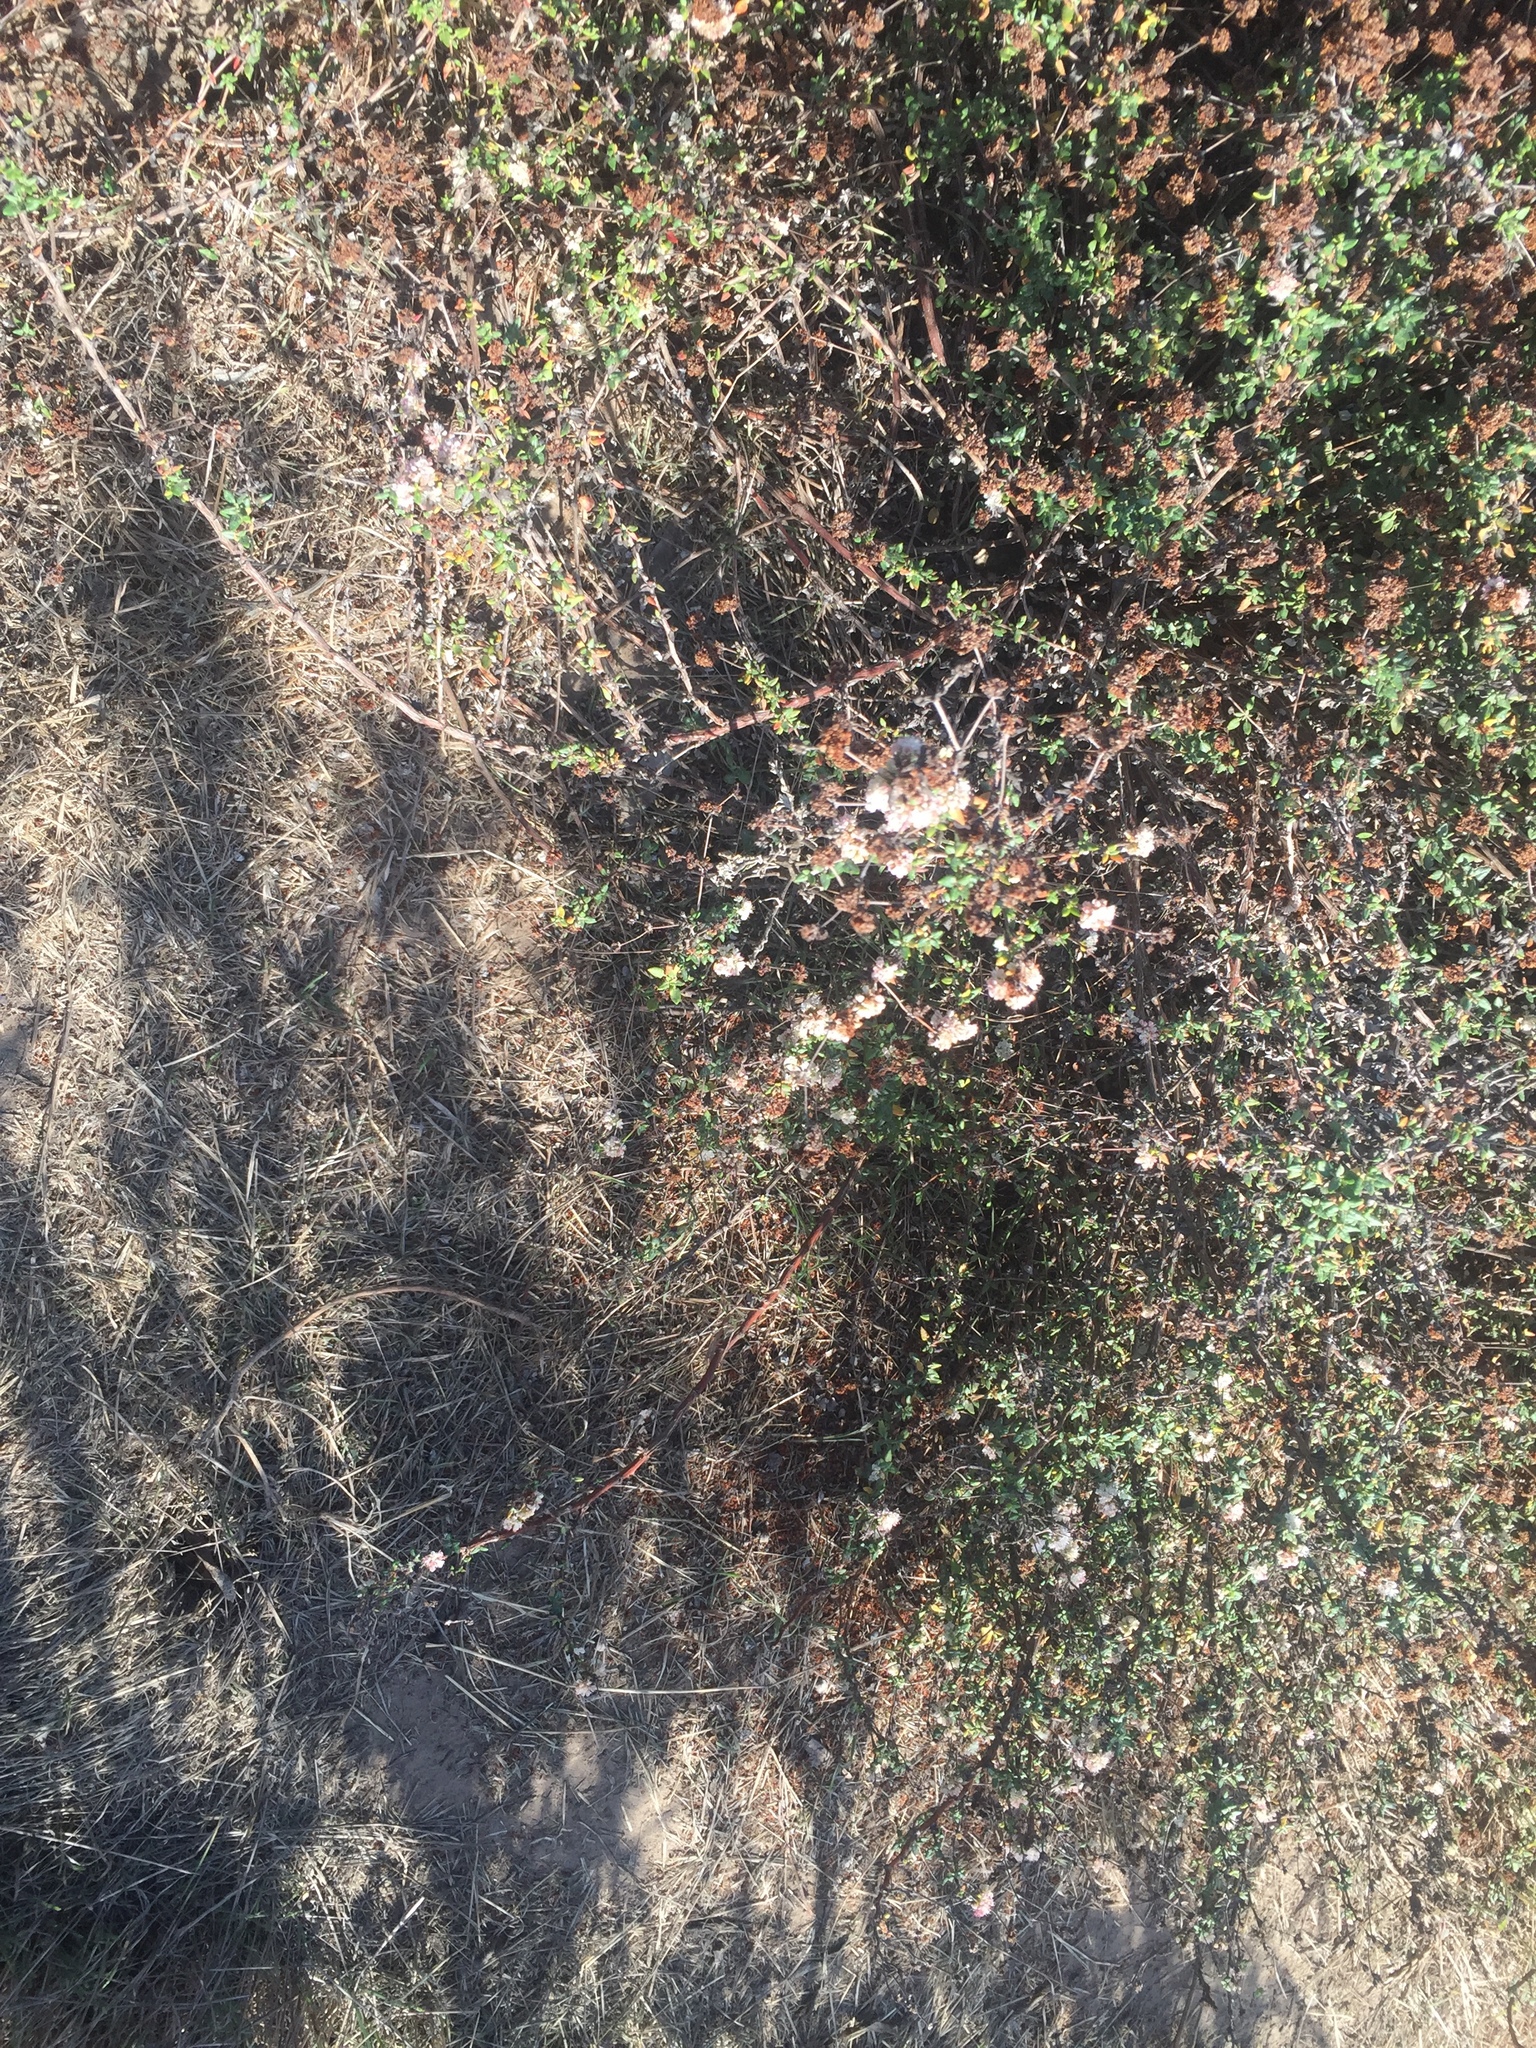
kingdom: Plantae
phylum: Tracheophyta
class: Magnoliopsida
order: Caryophyllales
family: Polygonaceae
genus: Eriogonum
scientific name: Eriogonum fasciculatum
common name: California wild buckwheat
